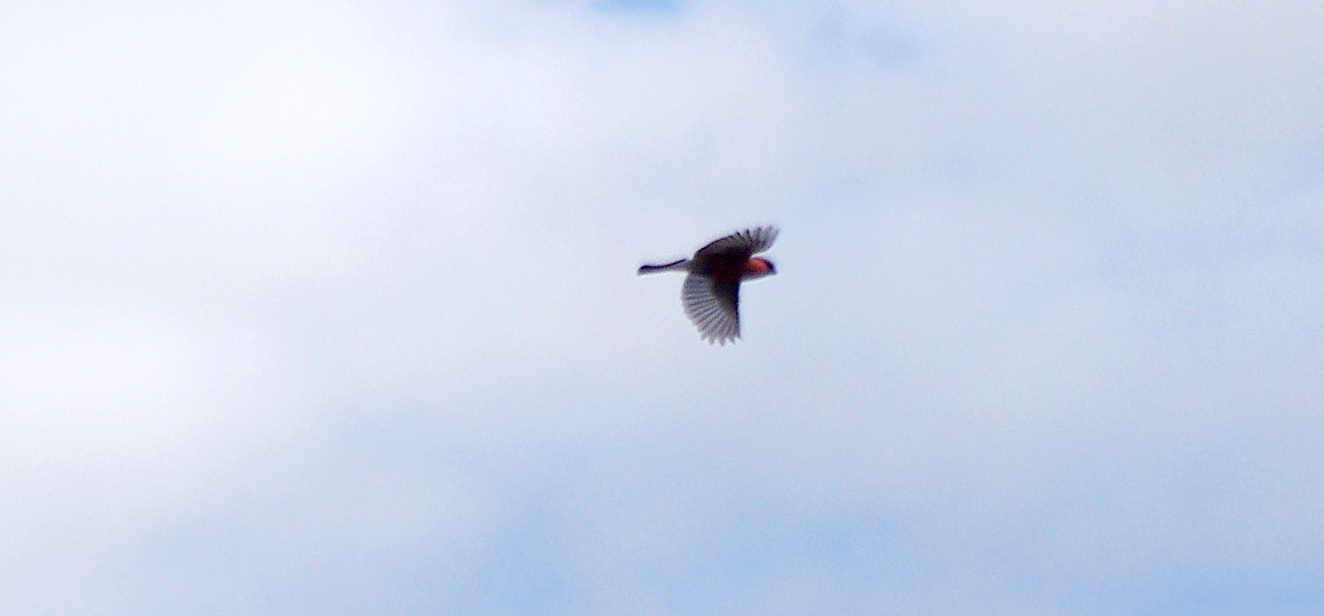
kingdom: Animalia
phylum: Chordata
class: Aves
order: Passeriformes
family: Fringillidae
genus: Pyrrhula
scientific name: Pyrrhula pyrrhula
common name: Eurasian bullfinch
